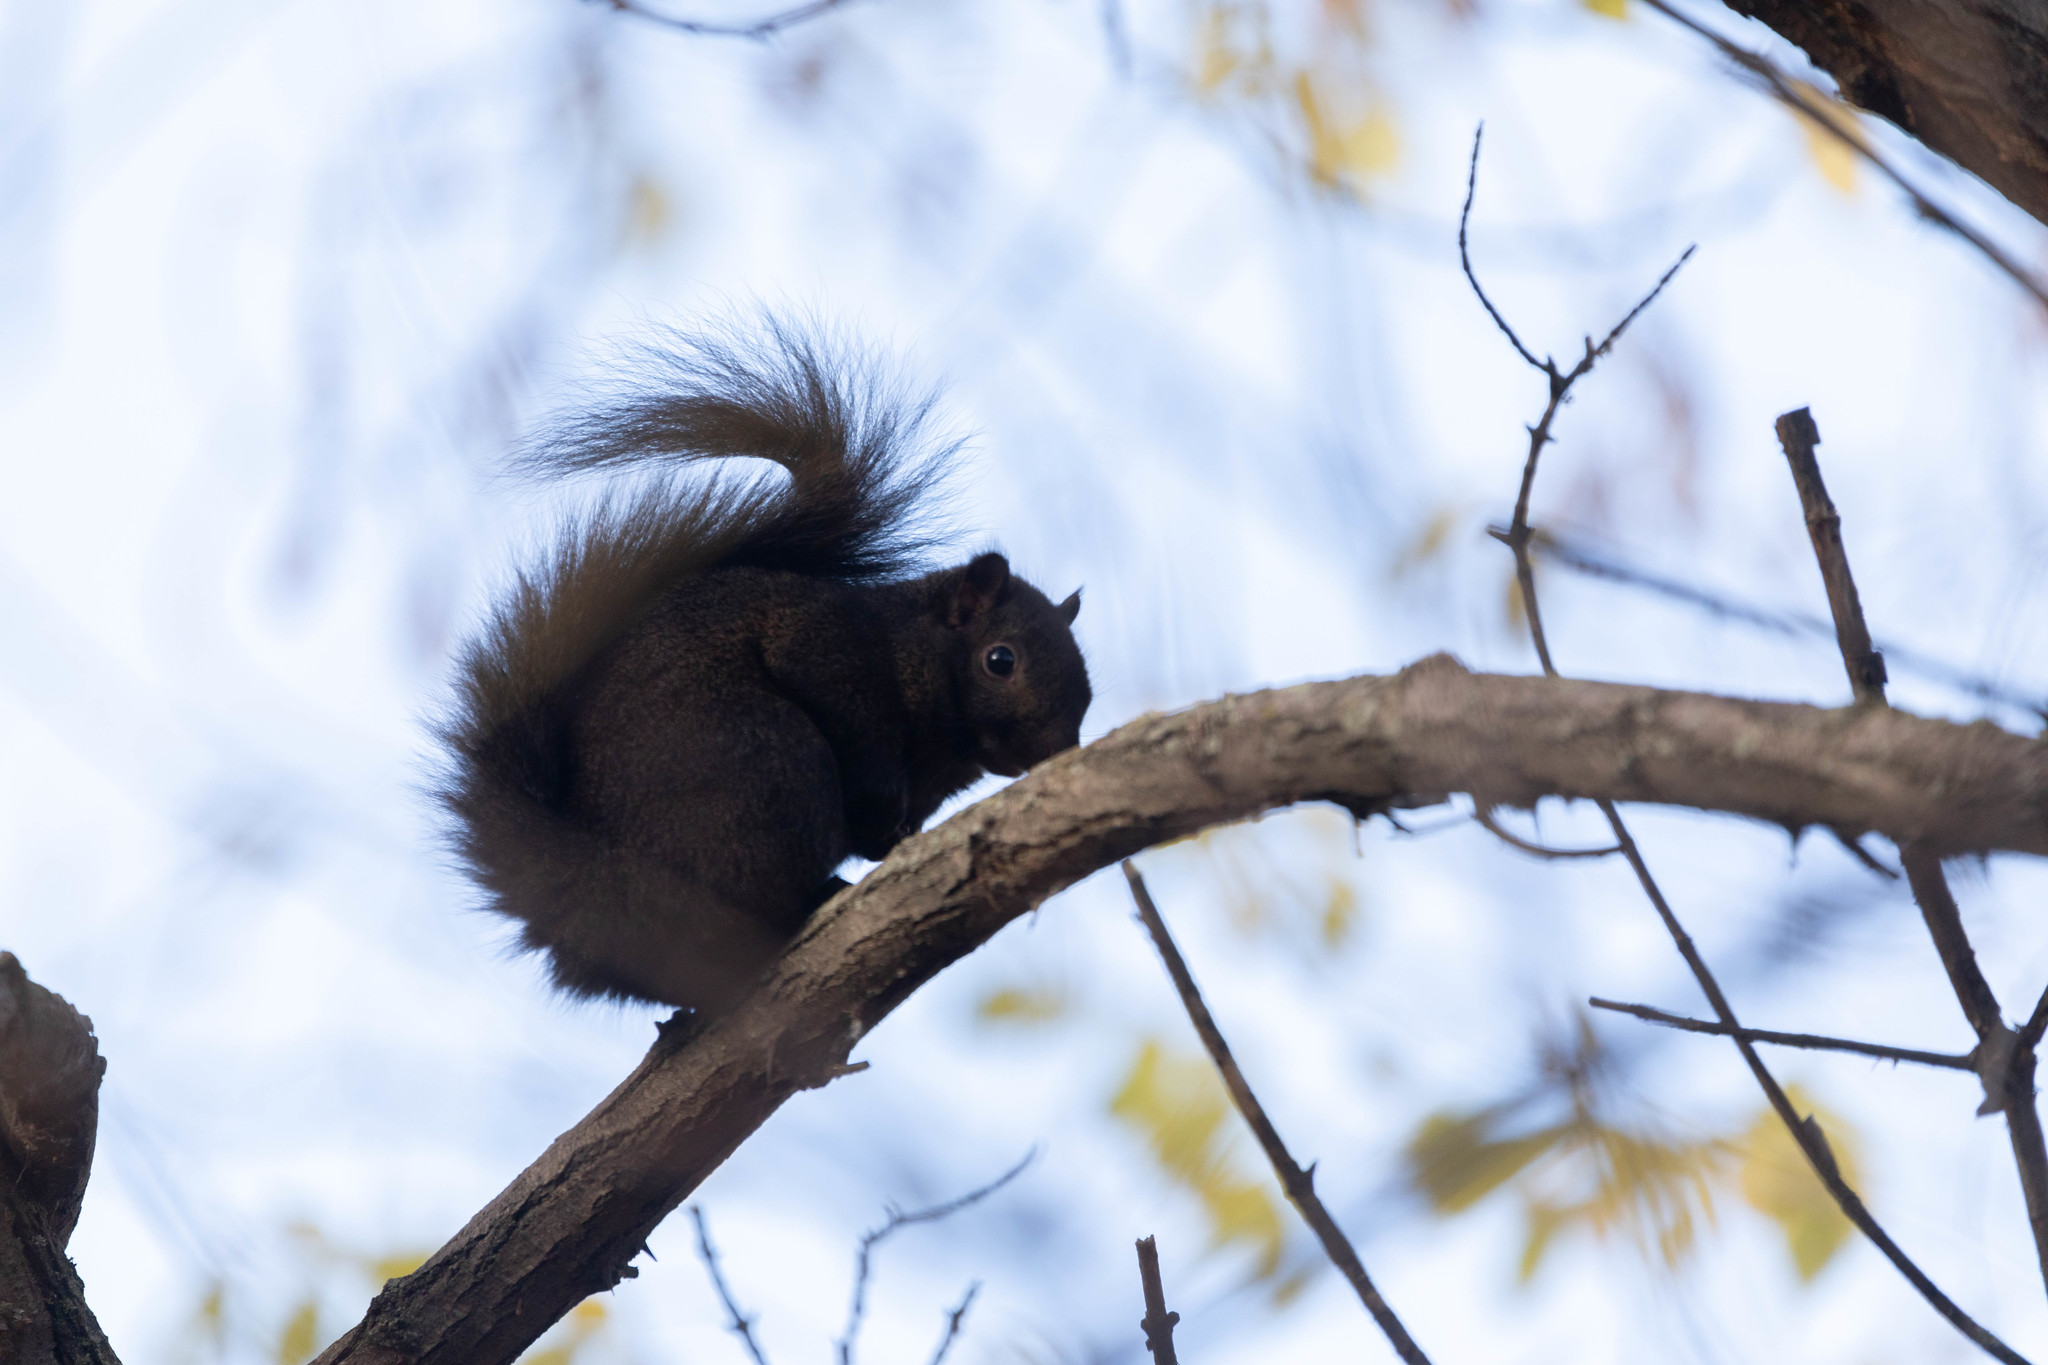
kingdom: Animalia
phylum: Chordata
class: Mammalia
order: Rodentia
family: Sciuridae
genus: Sciurus
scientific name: Sciurus carolinensis
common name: Eastern gray squirrel
